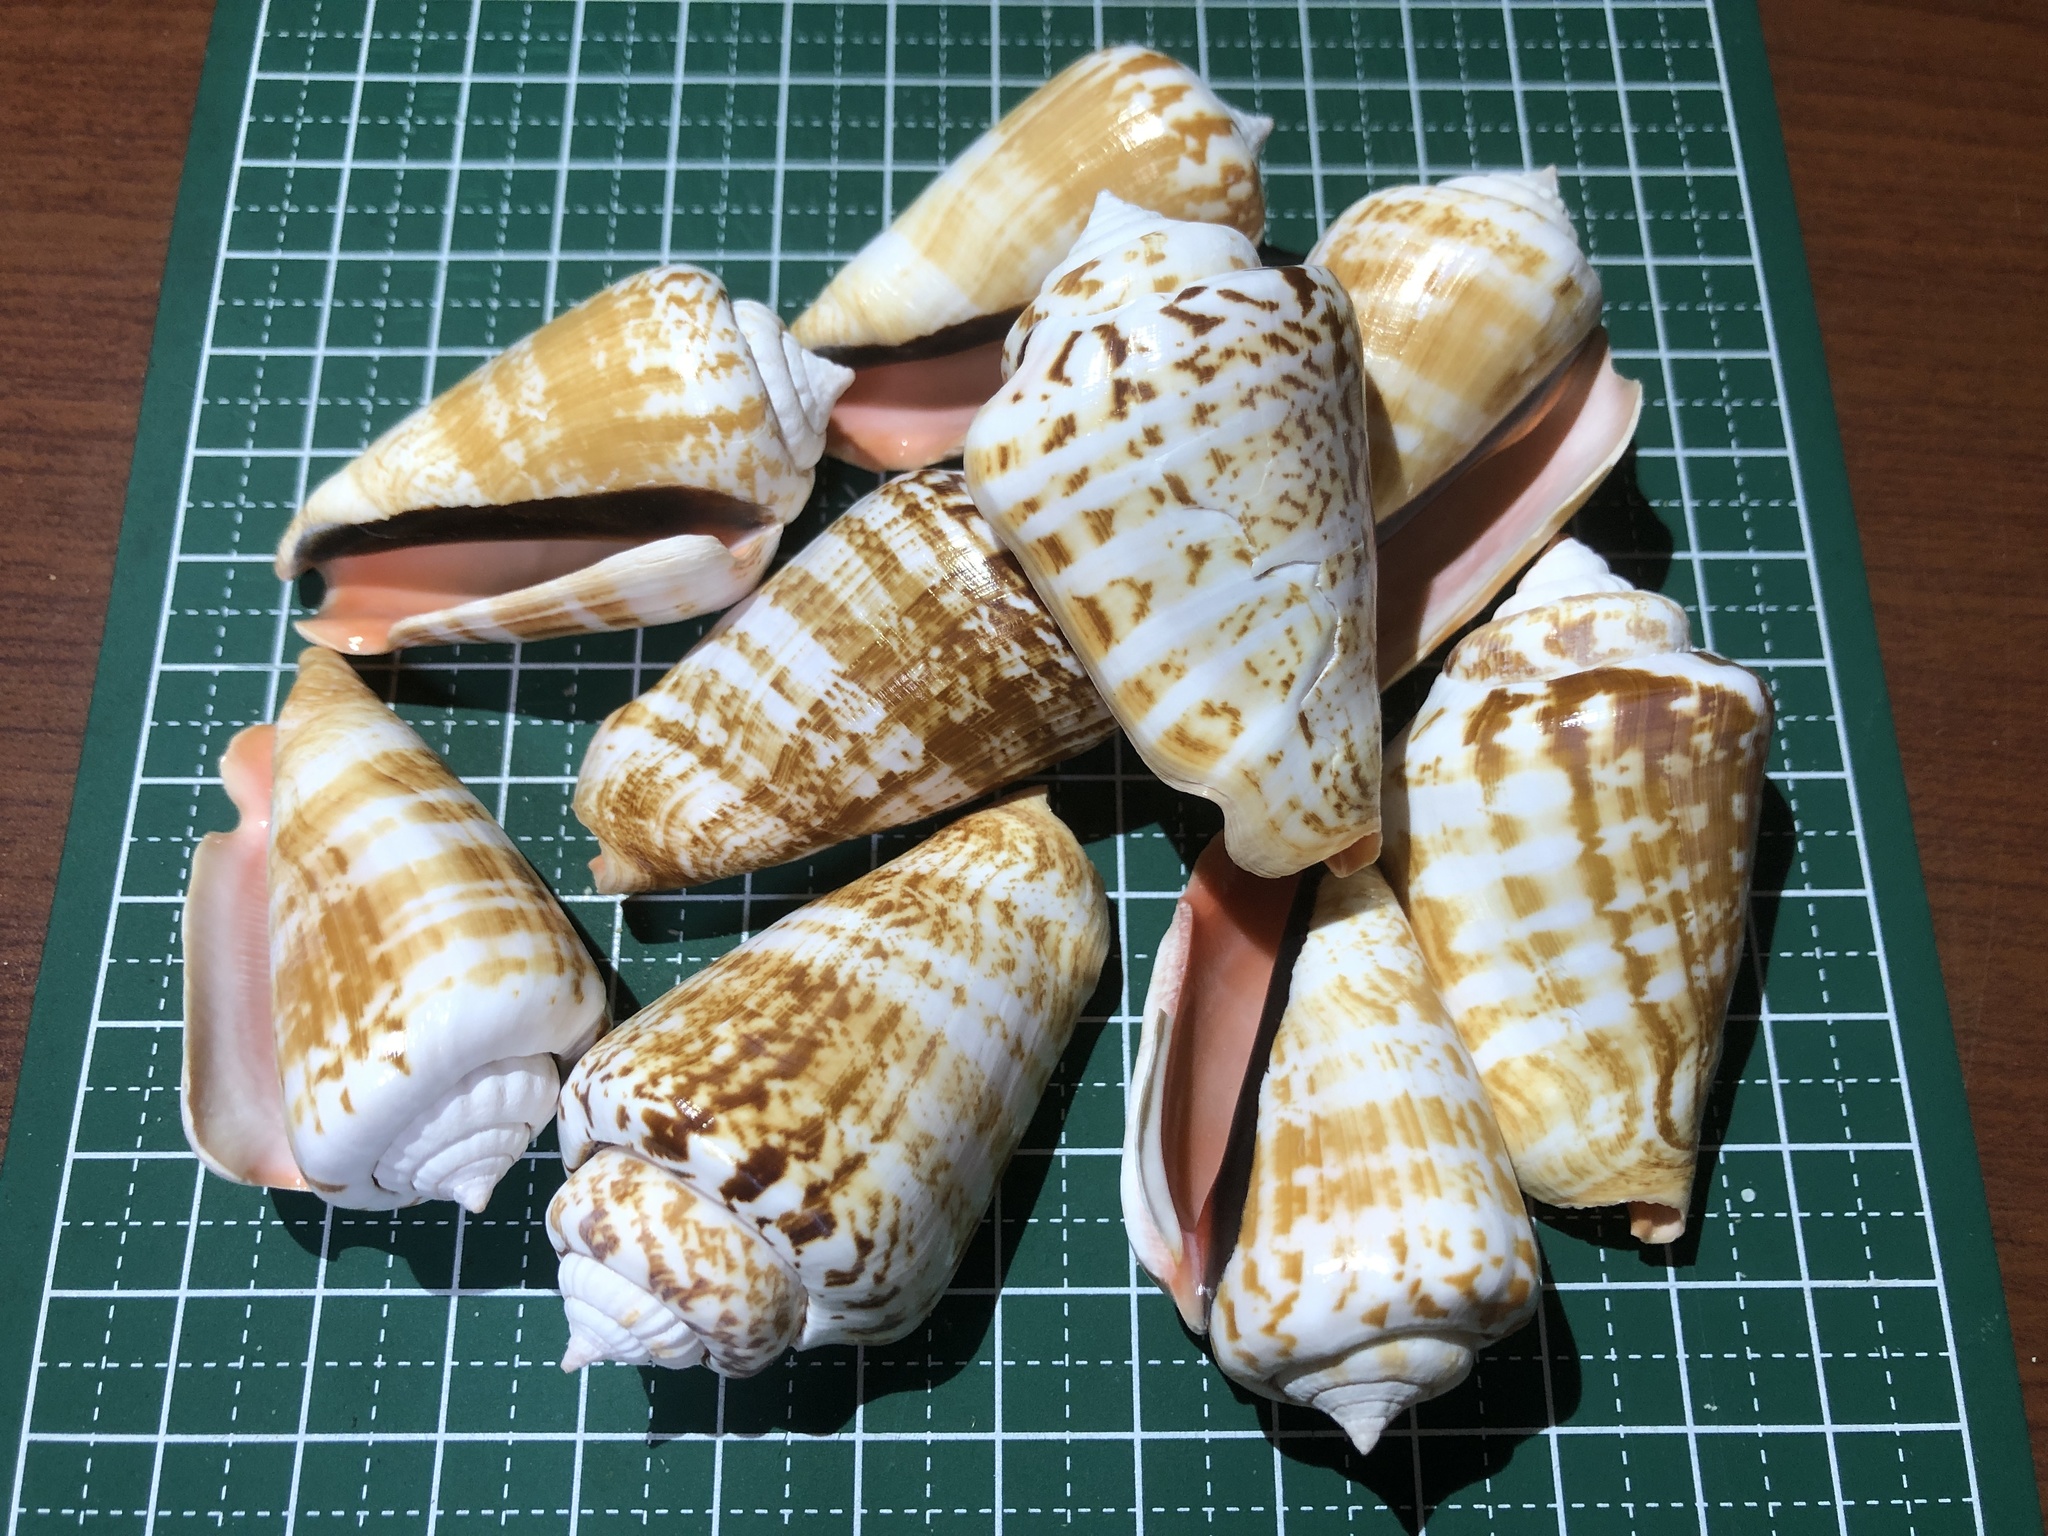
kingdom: Animalia
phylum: Mollusca
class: Gastropoda
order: Littorinimorpha
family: Strombidae
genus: Conomurex
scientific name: Conomurex luhuanus
